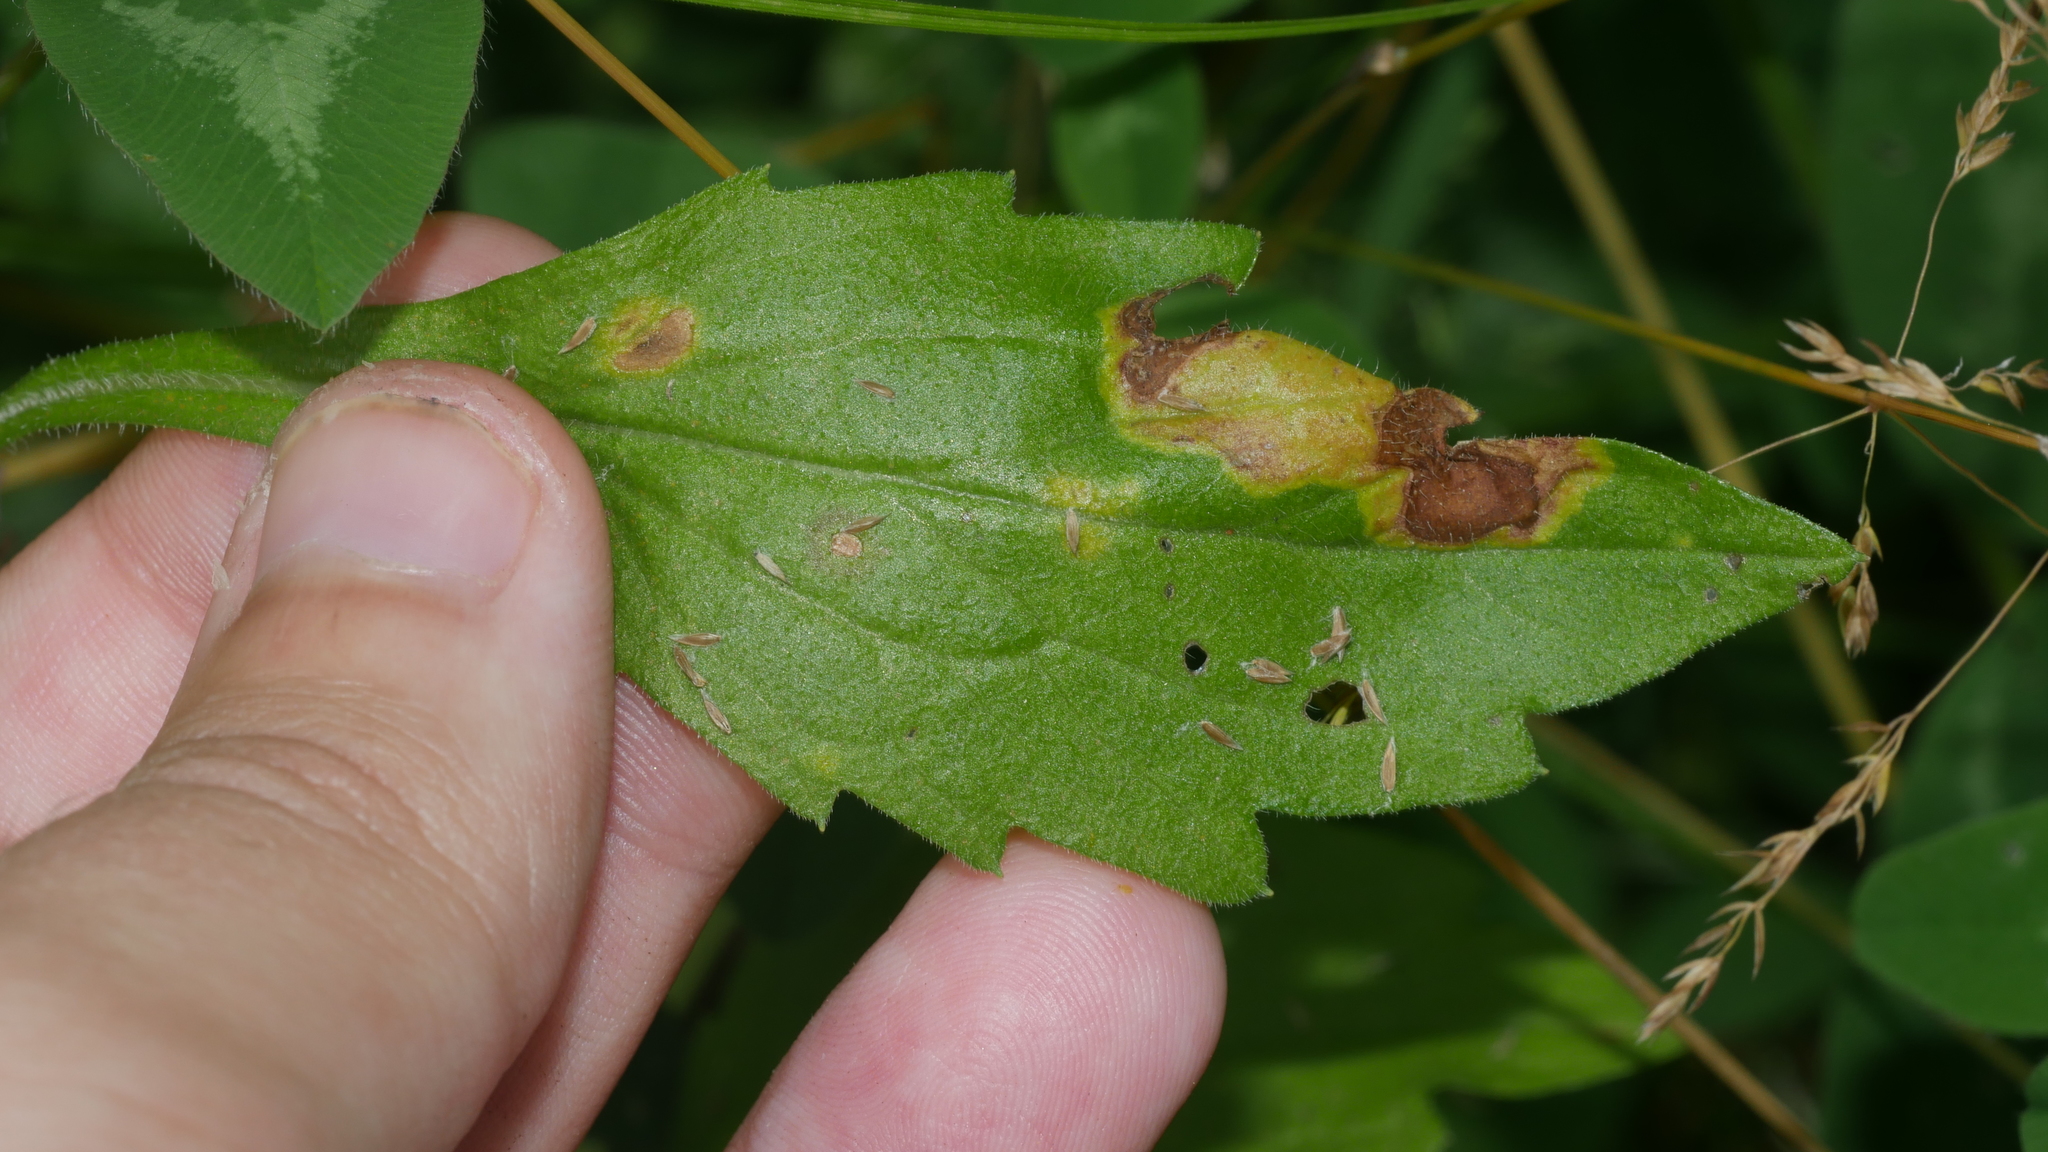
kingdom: Animalia
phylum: Arthropoda
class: Insecta
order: Lepidoptera
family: Gracillariidae
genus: Parectopa
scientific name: Parectopa plantaginisella
